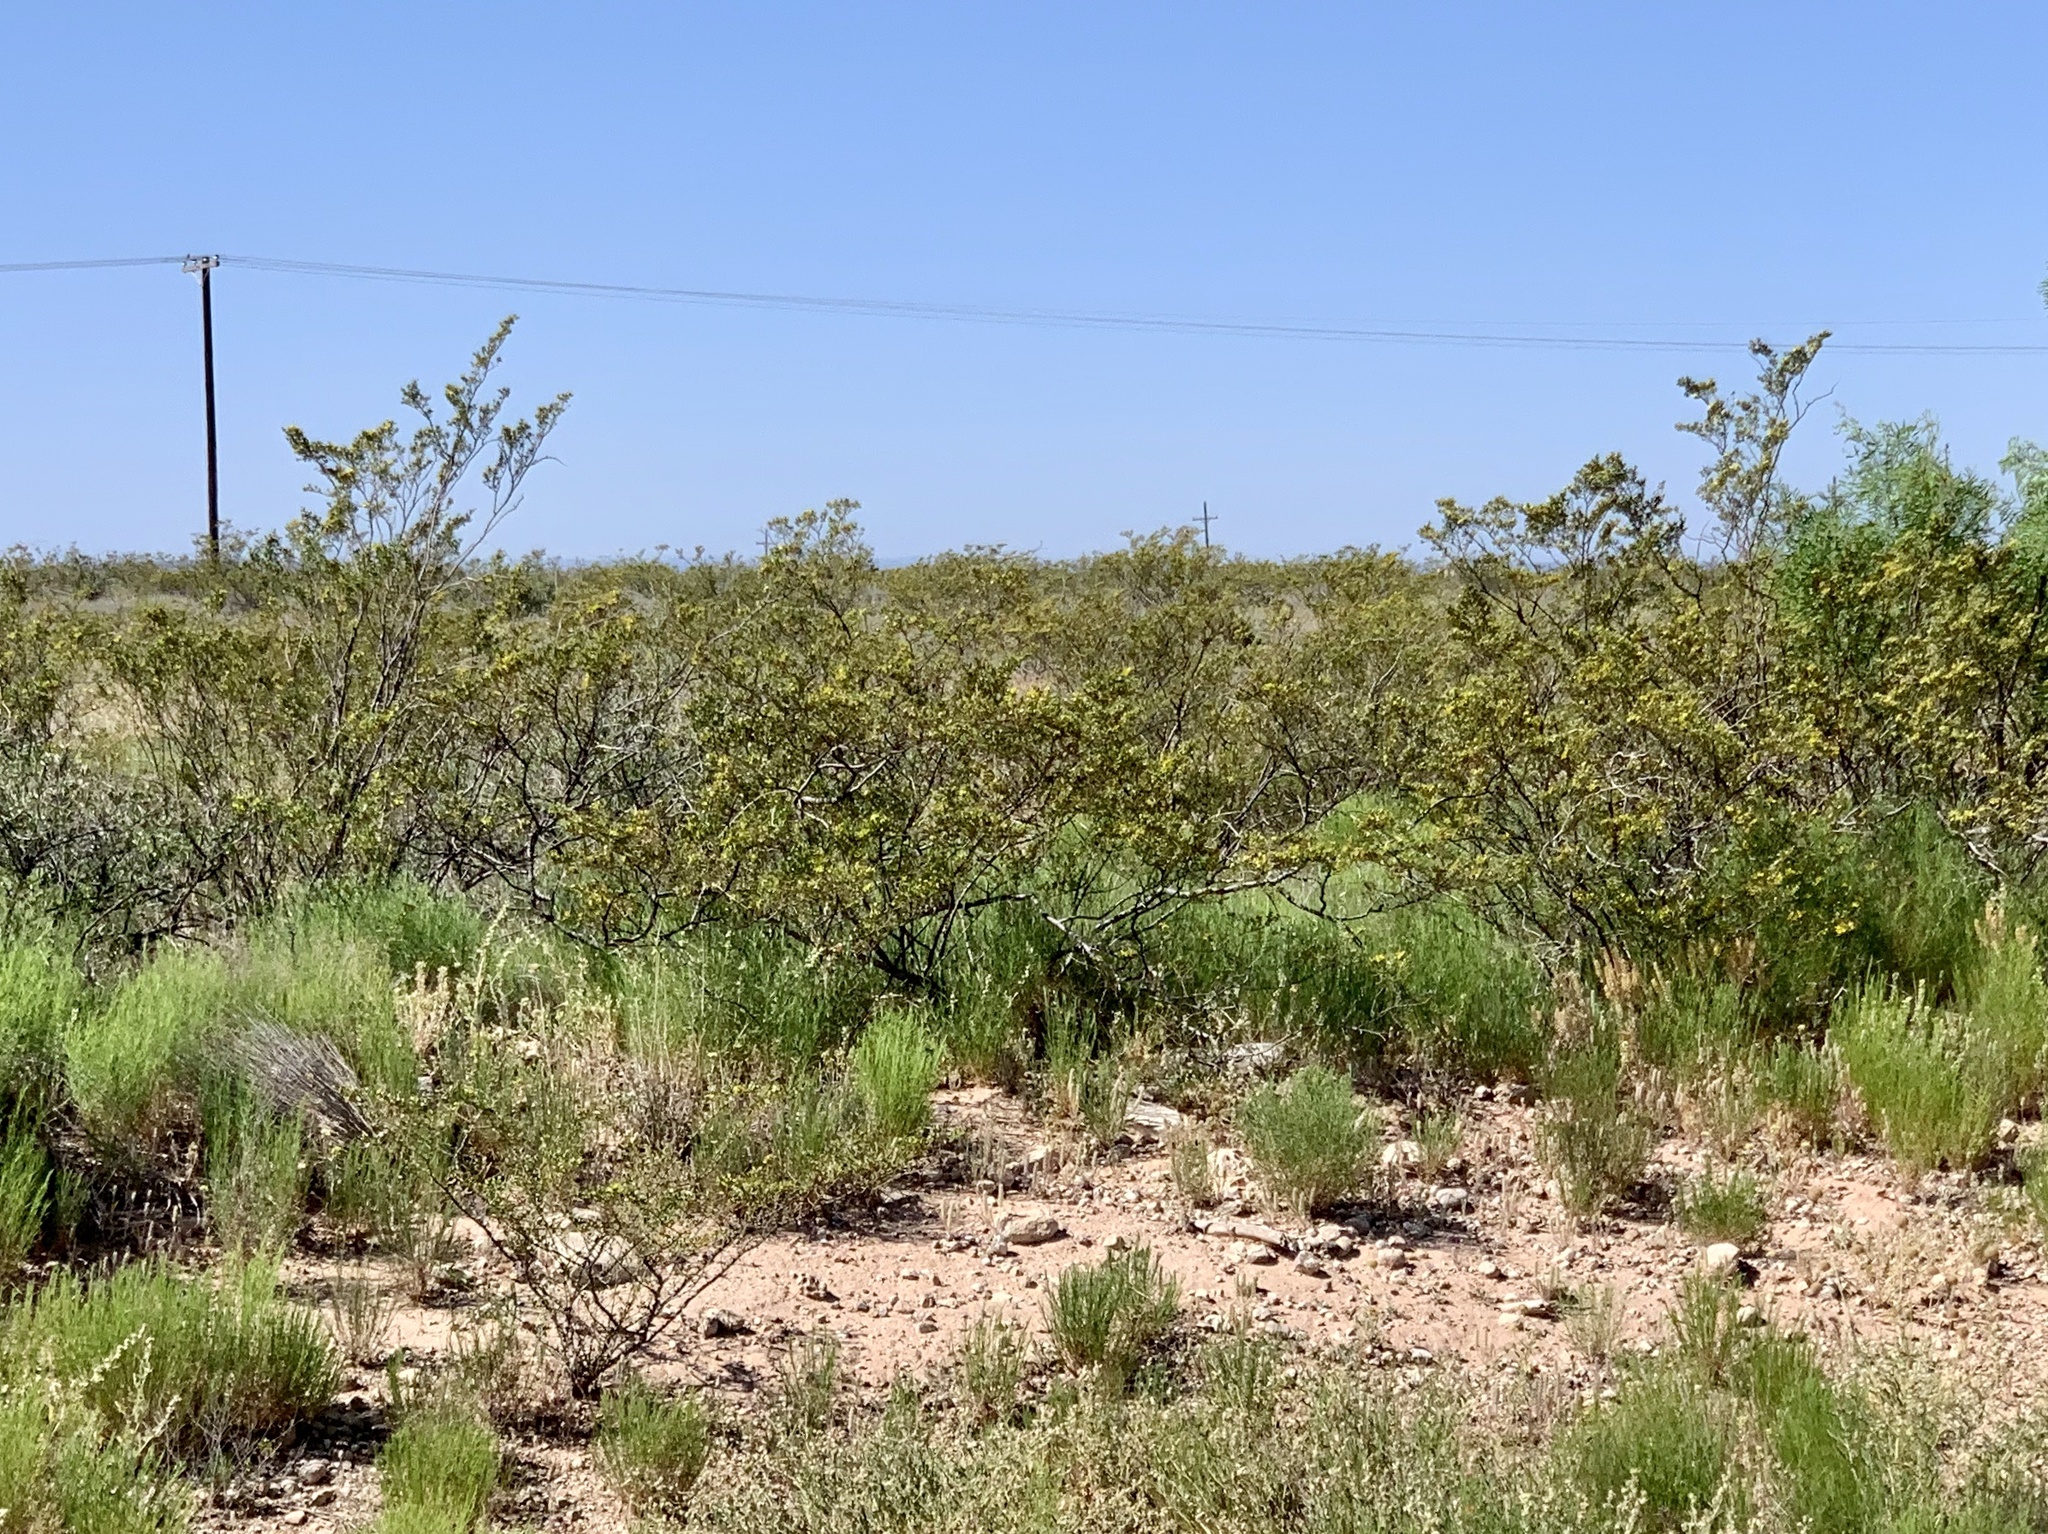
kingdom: Plantae
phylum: Tracheophyta
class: Magnoliopsida
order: Zygophyllales
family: Zygophyllaceae
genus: Larrea
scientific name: Larrea tridentata
